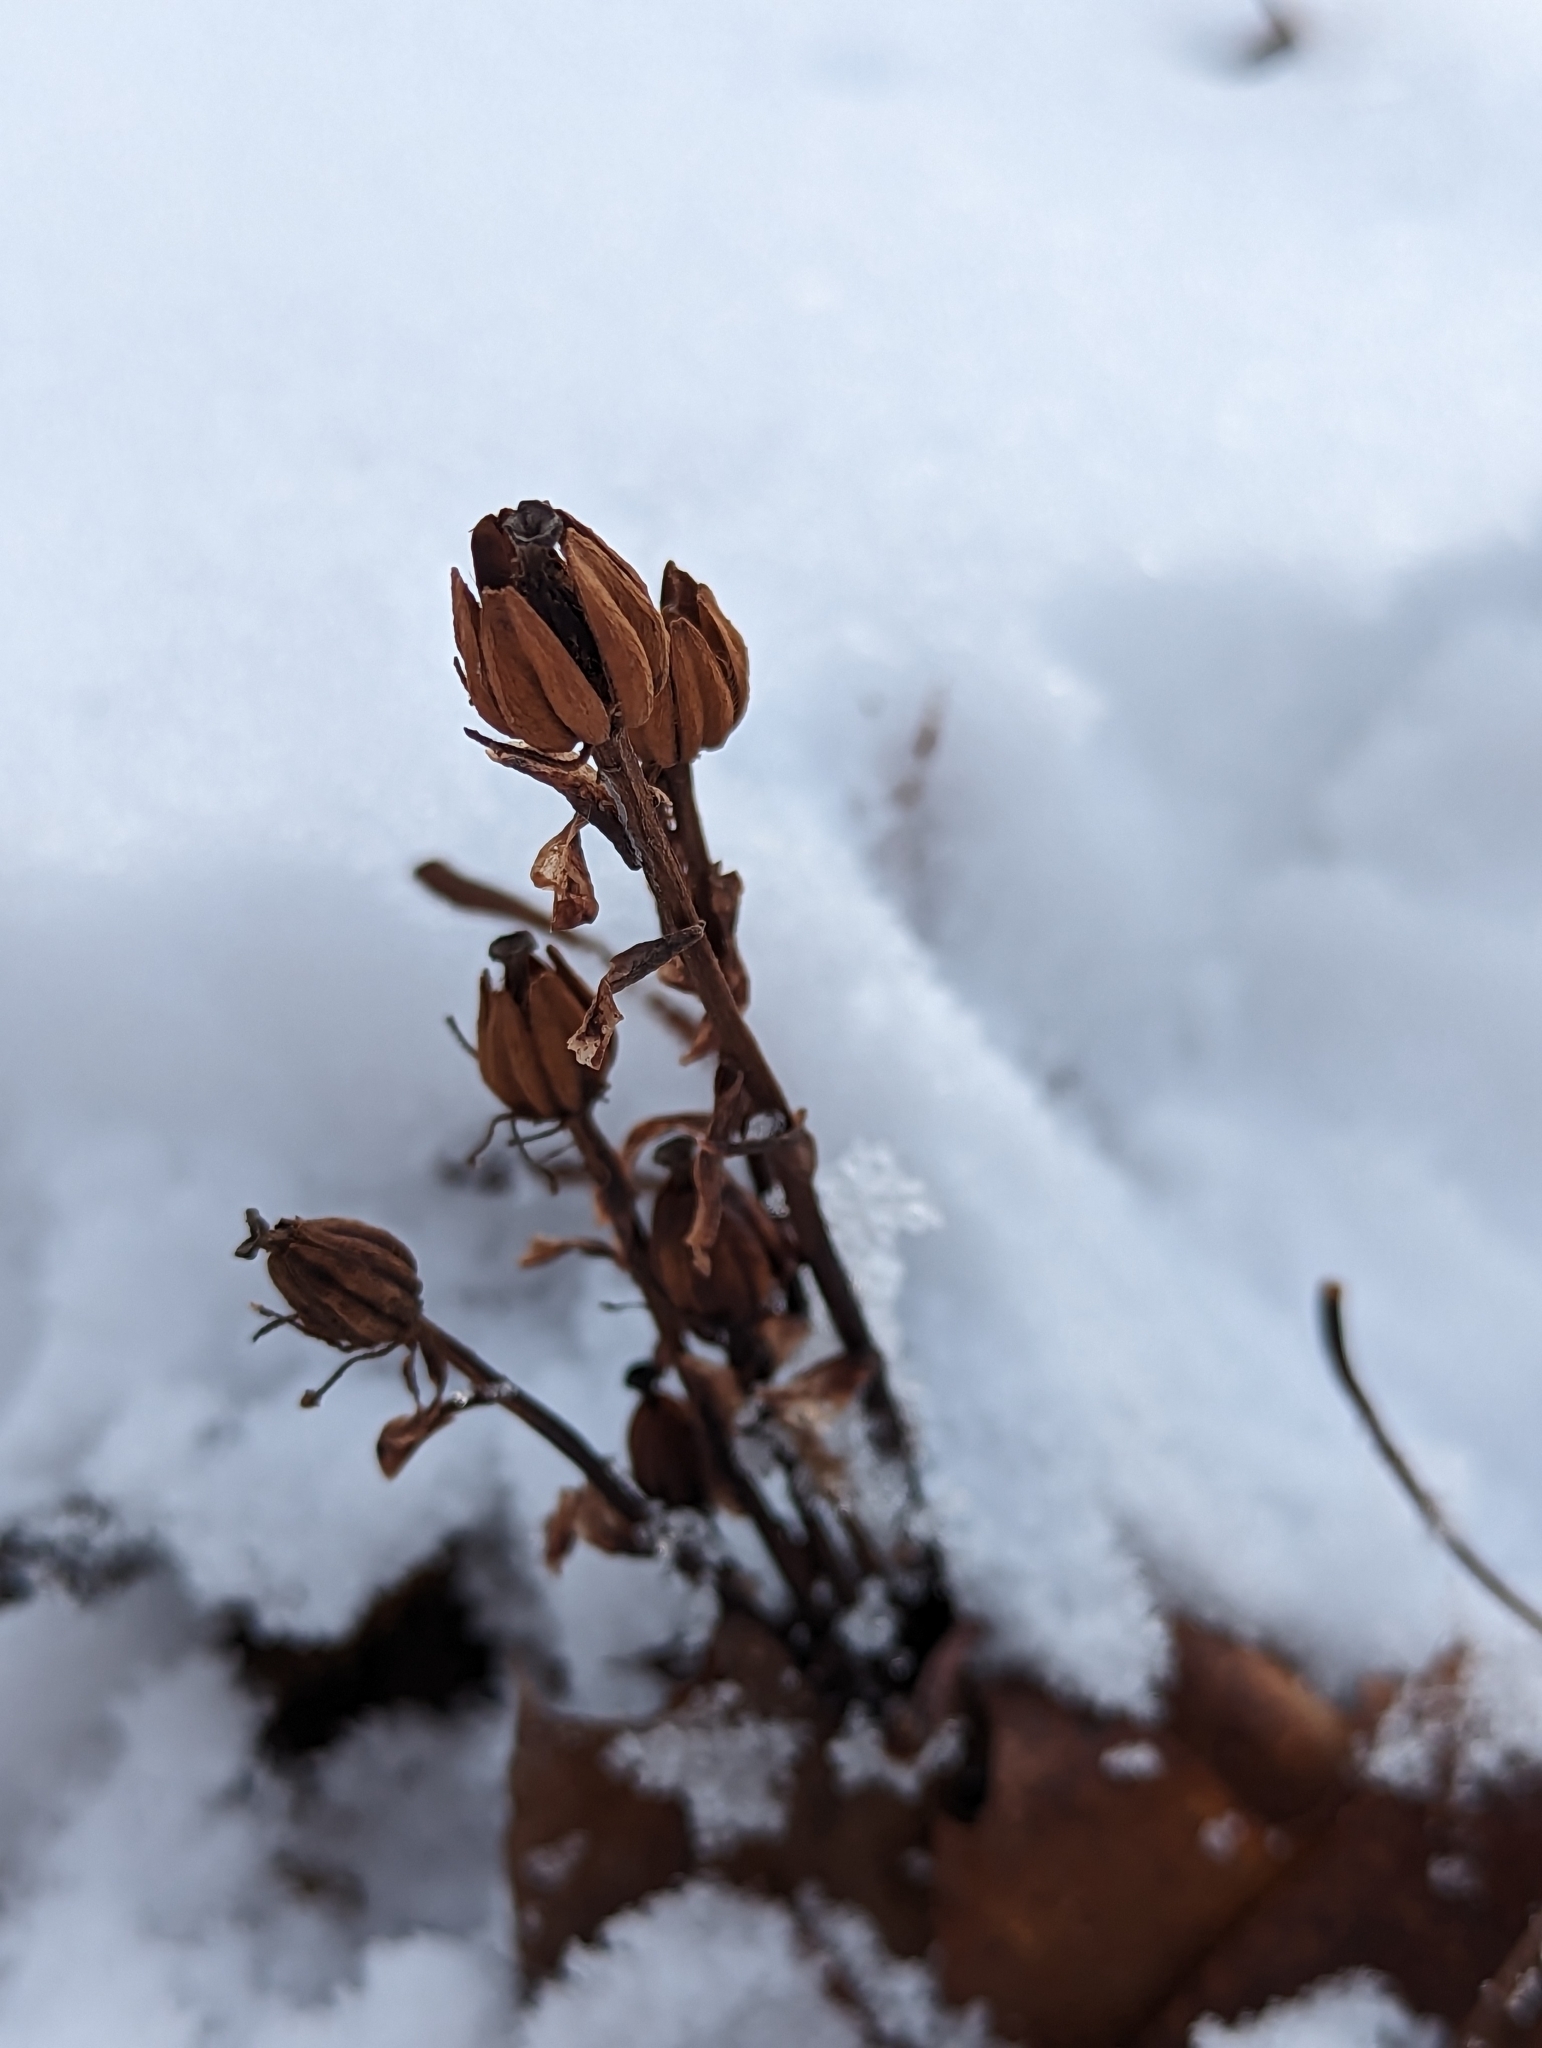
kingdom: Plantae
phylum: Tracheophyta
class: Magnoliopsida
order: Ericales
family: Ericaceae
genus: Monotropa
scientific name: Monotropa uniflora
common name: Convulsion root
